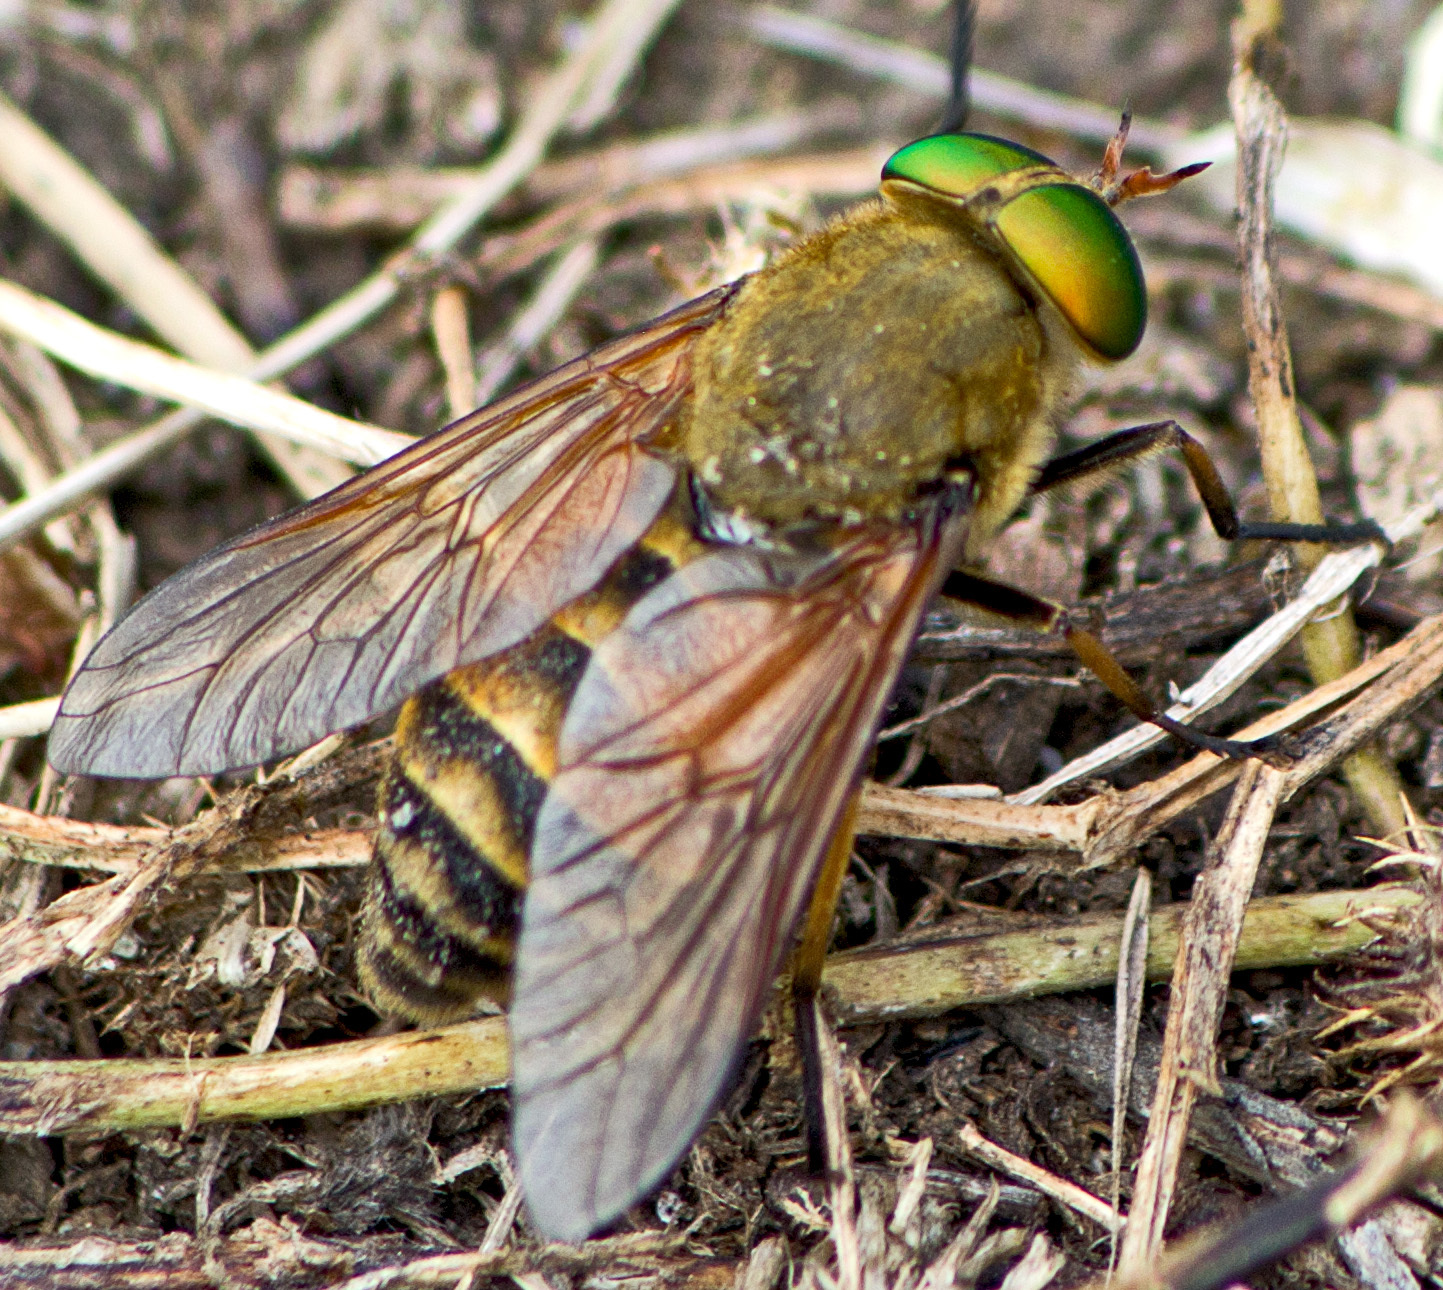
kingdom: Animalia
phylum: Arthropoda
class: Insecta
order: Diptera
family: Tabanidae
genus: Philipomyia
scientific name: Philipomyia graeca
